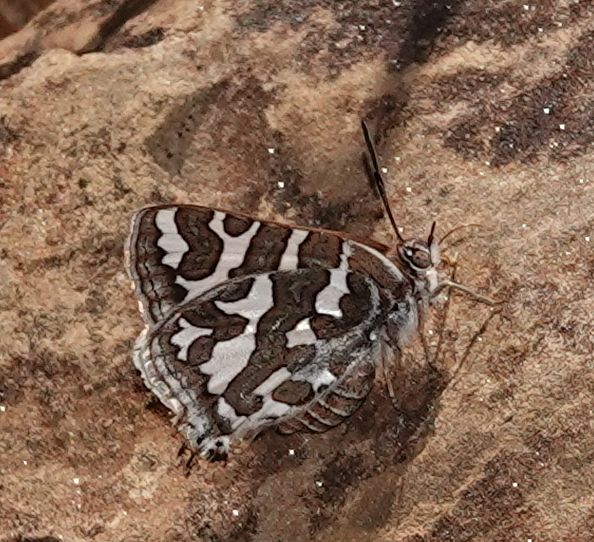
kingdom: Animalia
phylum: Arthropoda
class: Insecta
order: Lepidoptera
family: Lycaenidae
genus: Aphnaeus
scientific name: Aphnaeus namaquus
